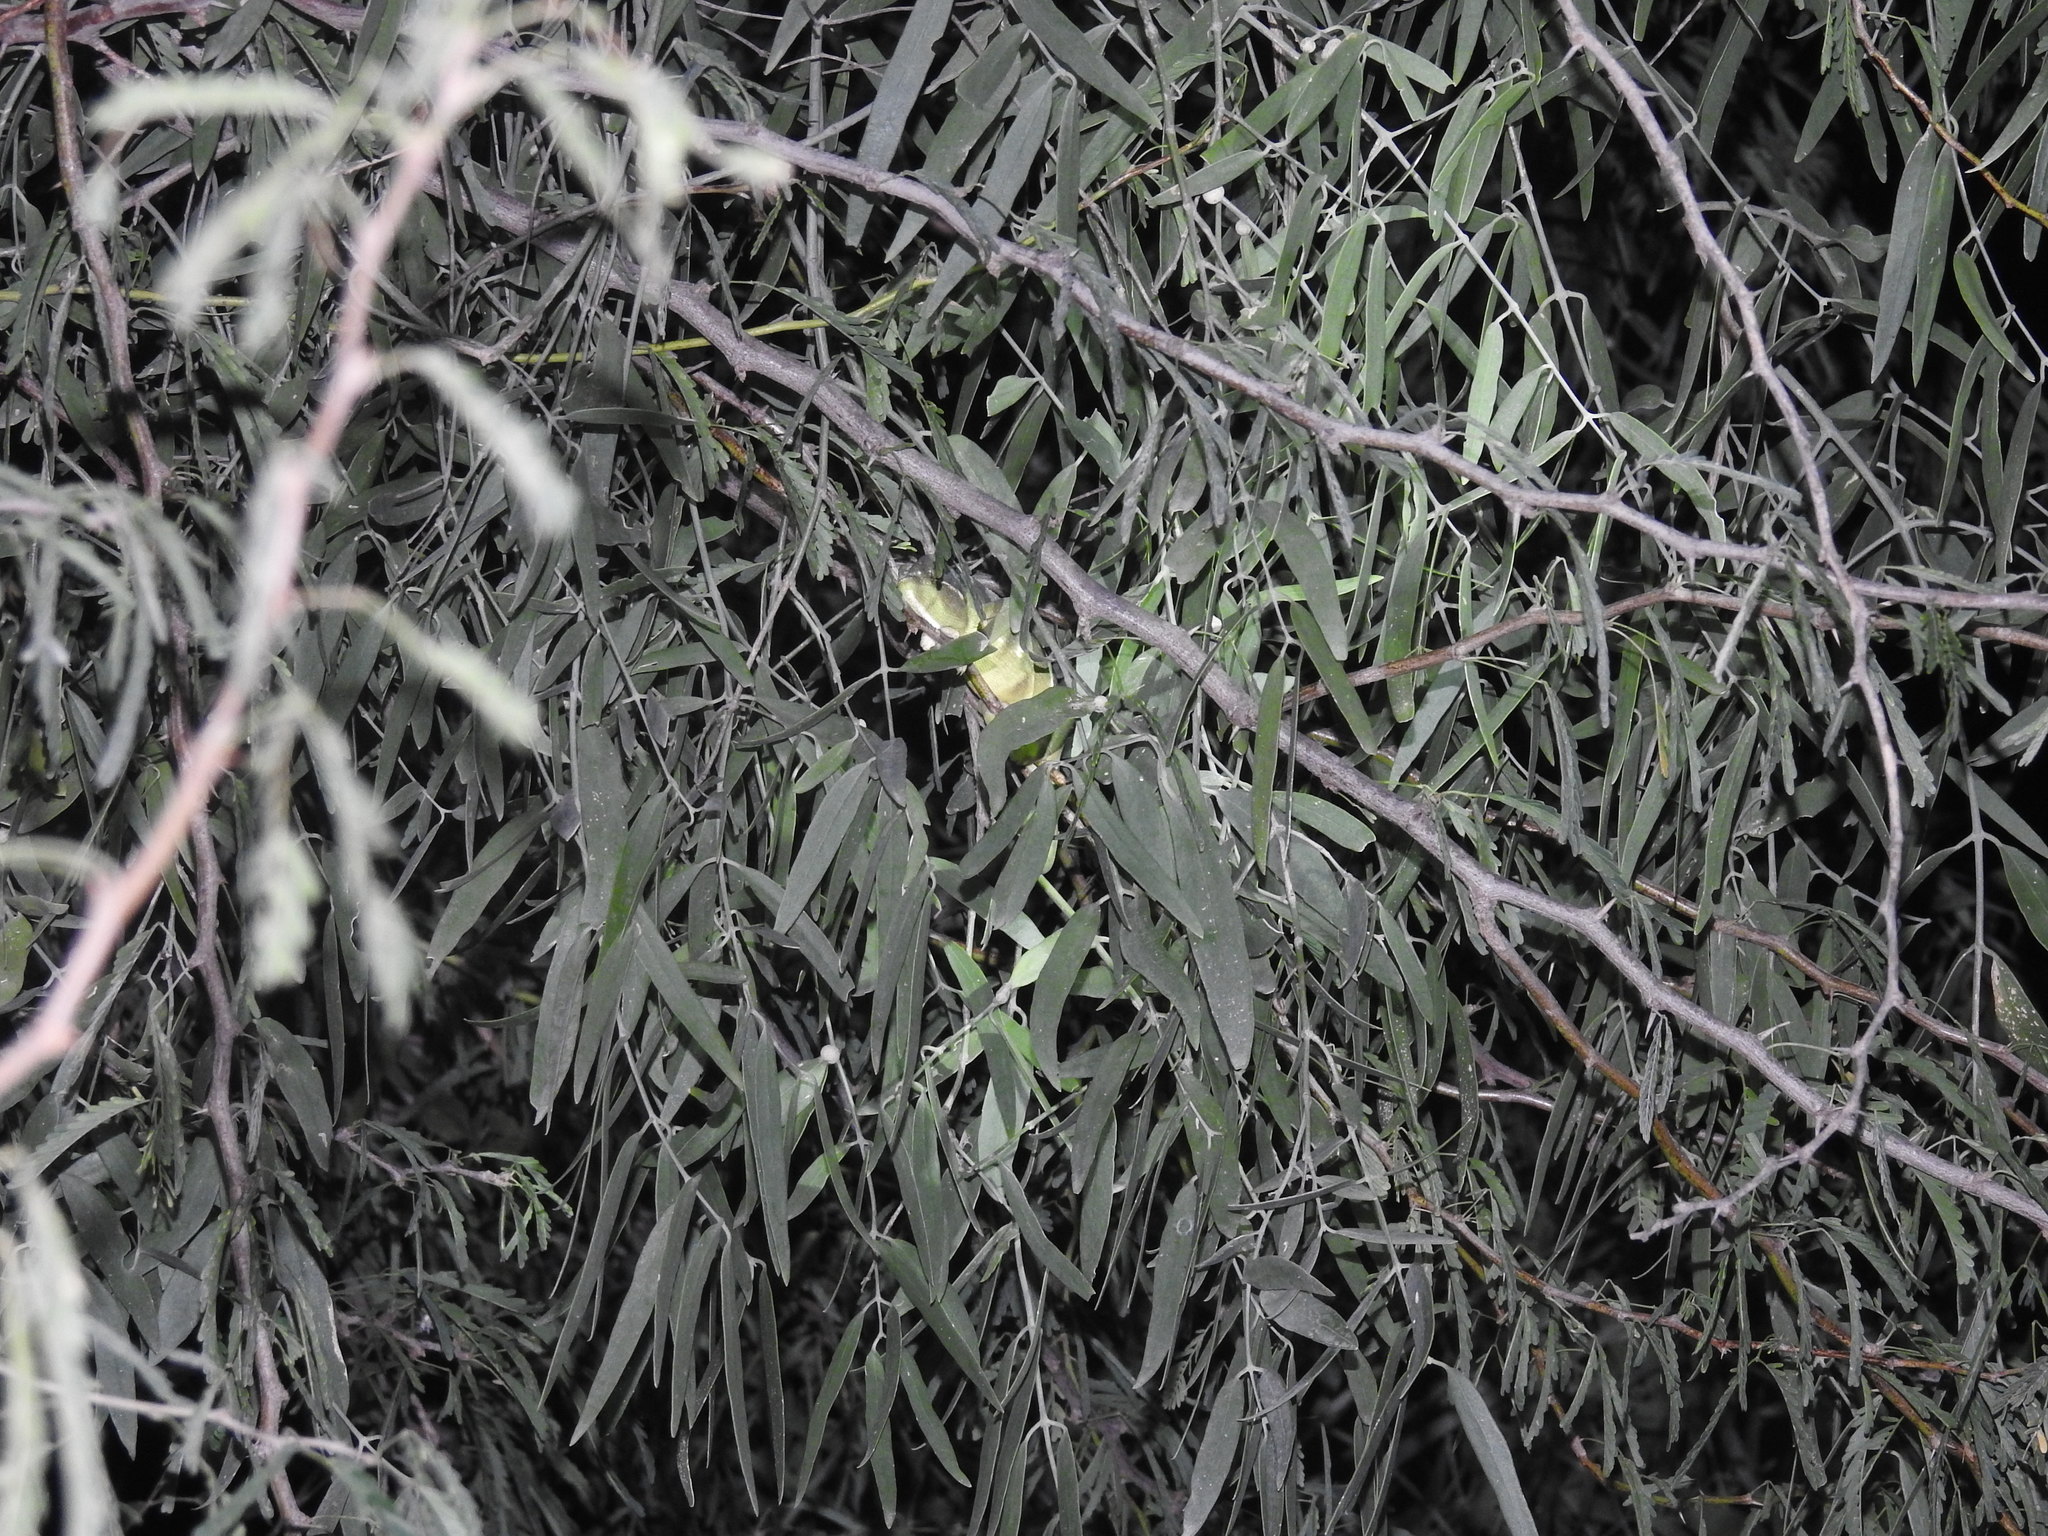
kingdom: Animalia
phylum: Chordata
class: Squamata
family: Chamaeleonidae
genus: Chamaeleo
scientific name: Chamaeleo zeylanicus
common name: Indian chameleon
